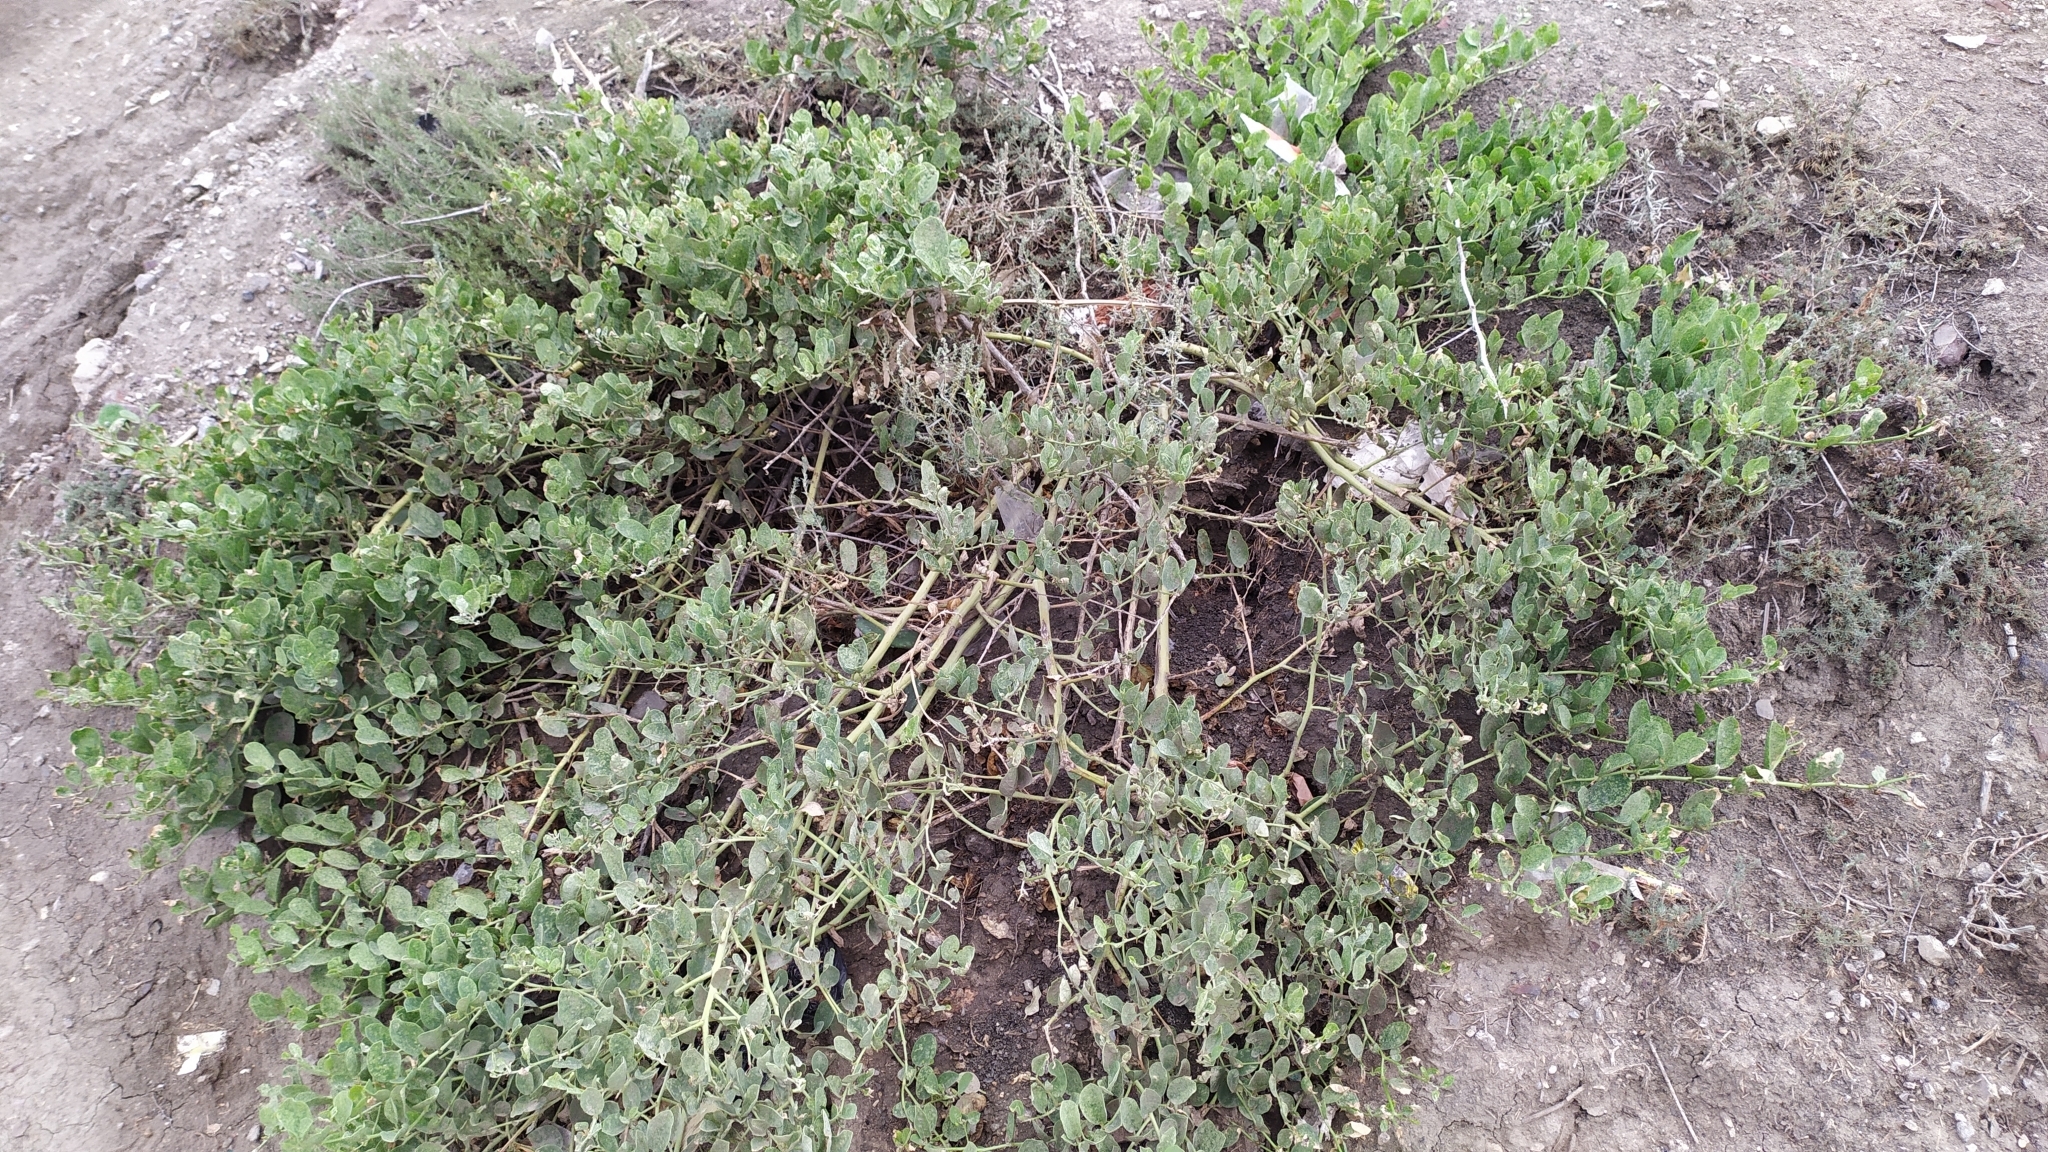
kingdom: Plantae
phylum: Tracheophyta
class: Magnoliopsida
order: Brassicales
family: Capparaceae
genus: Capparis
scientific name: Capparis spinosa
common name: Caper
